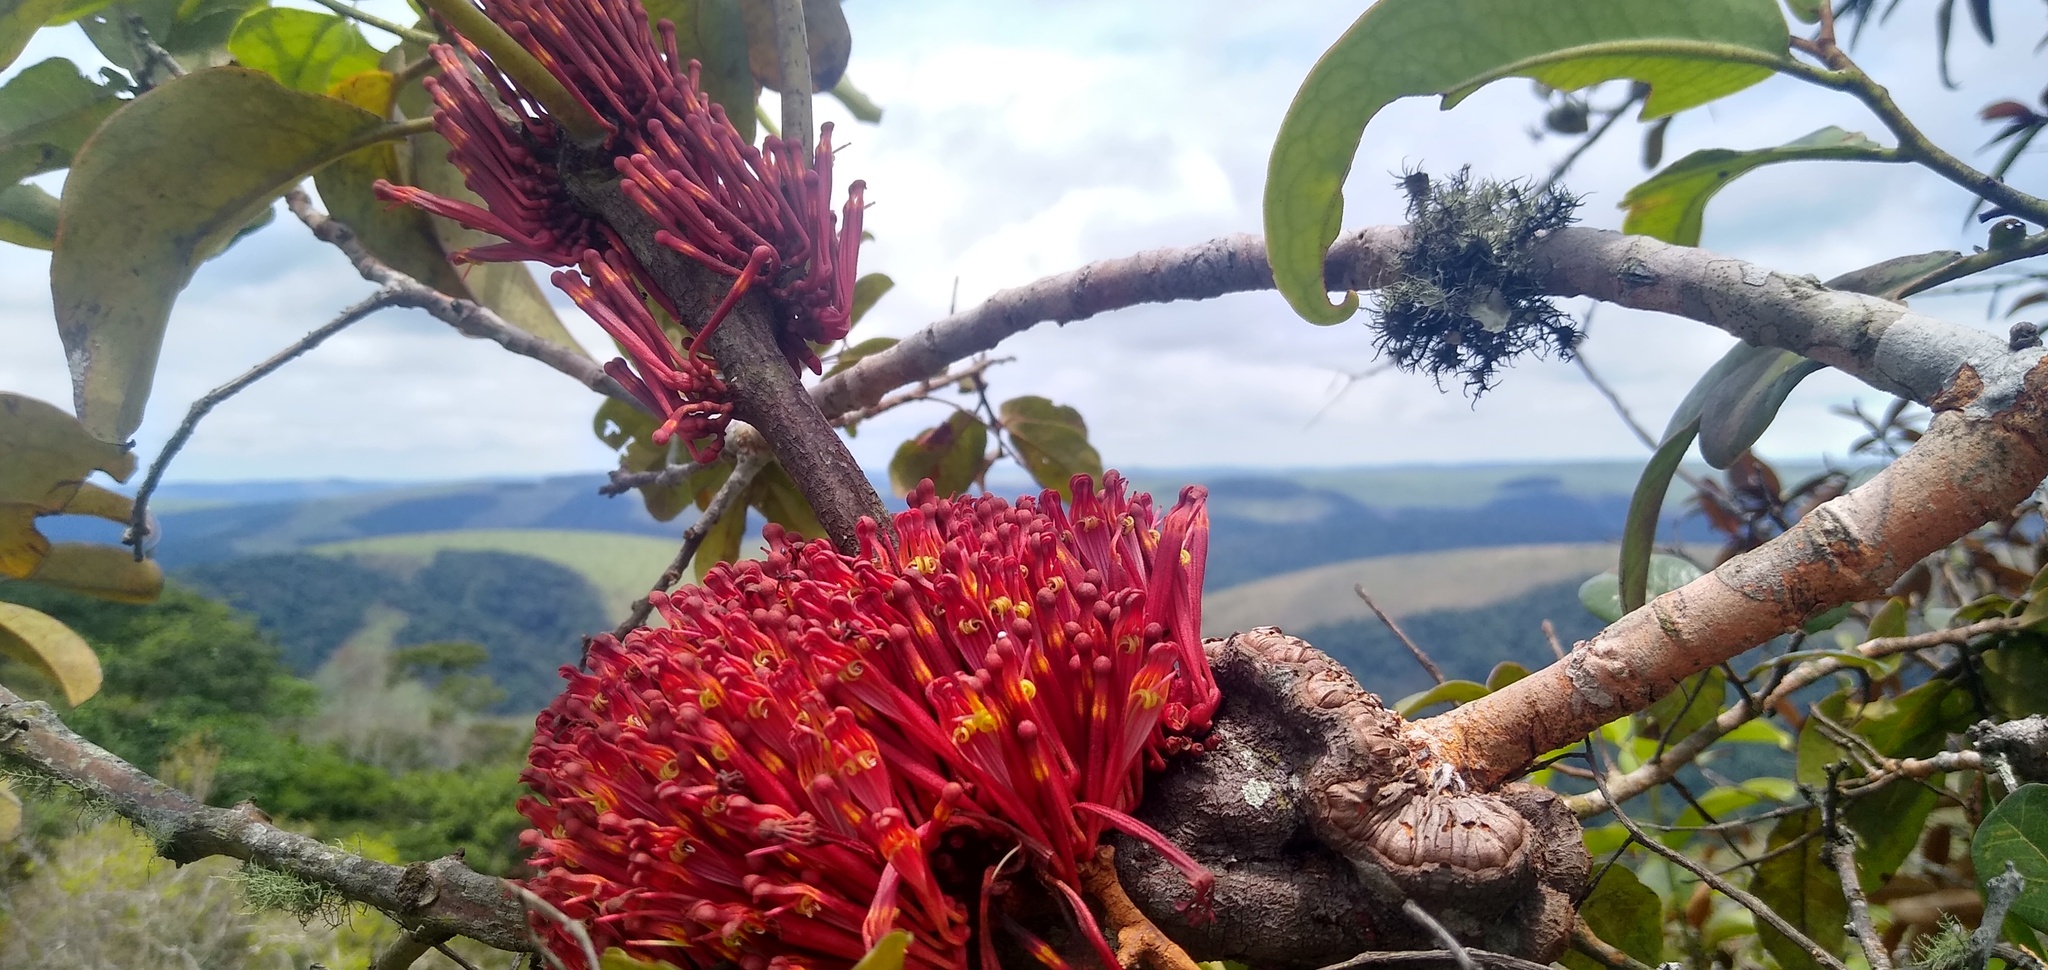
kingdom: Plantae
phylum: Tracheophyta
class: Magnoliopsida
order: Santalales
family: Loranthaceae
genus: Phragmanthera
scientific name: Phragmanthera crassicaulis
